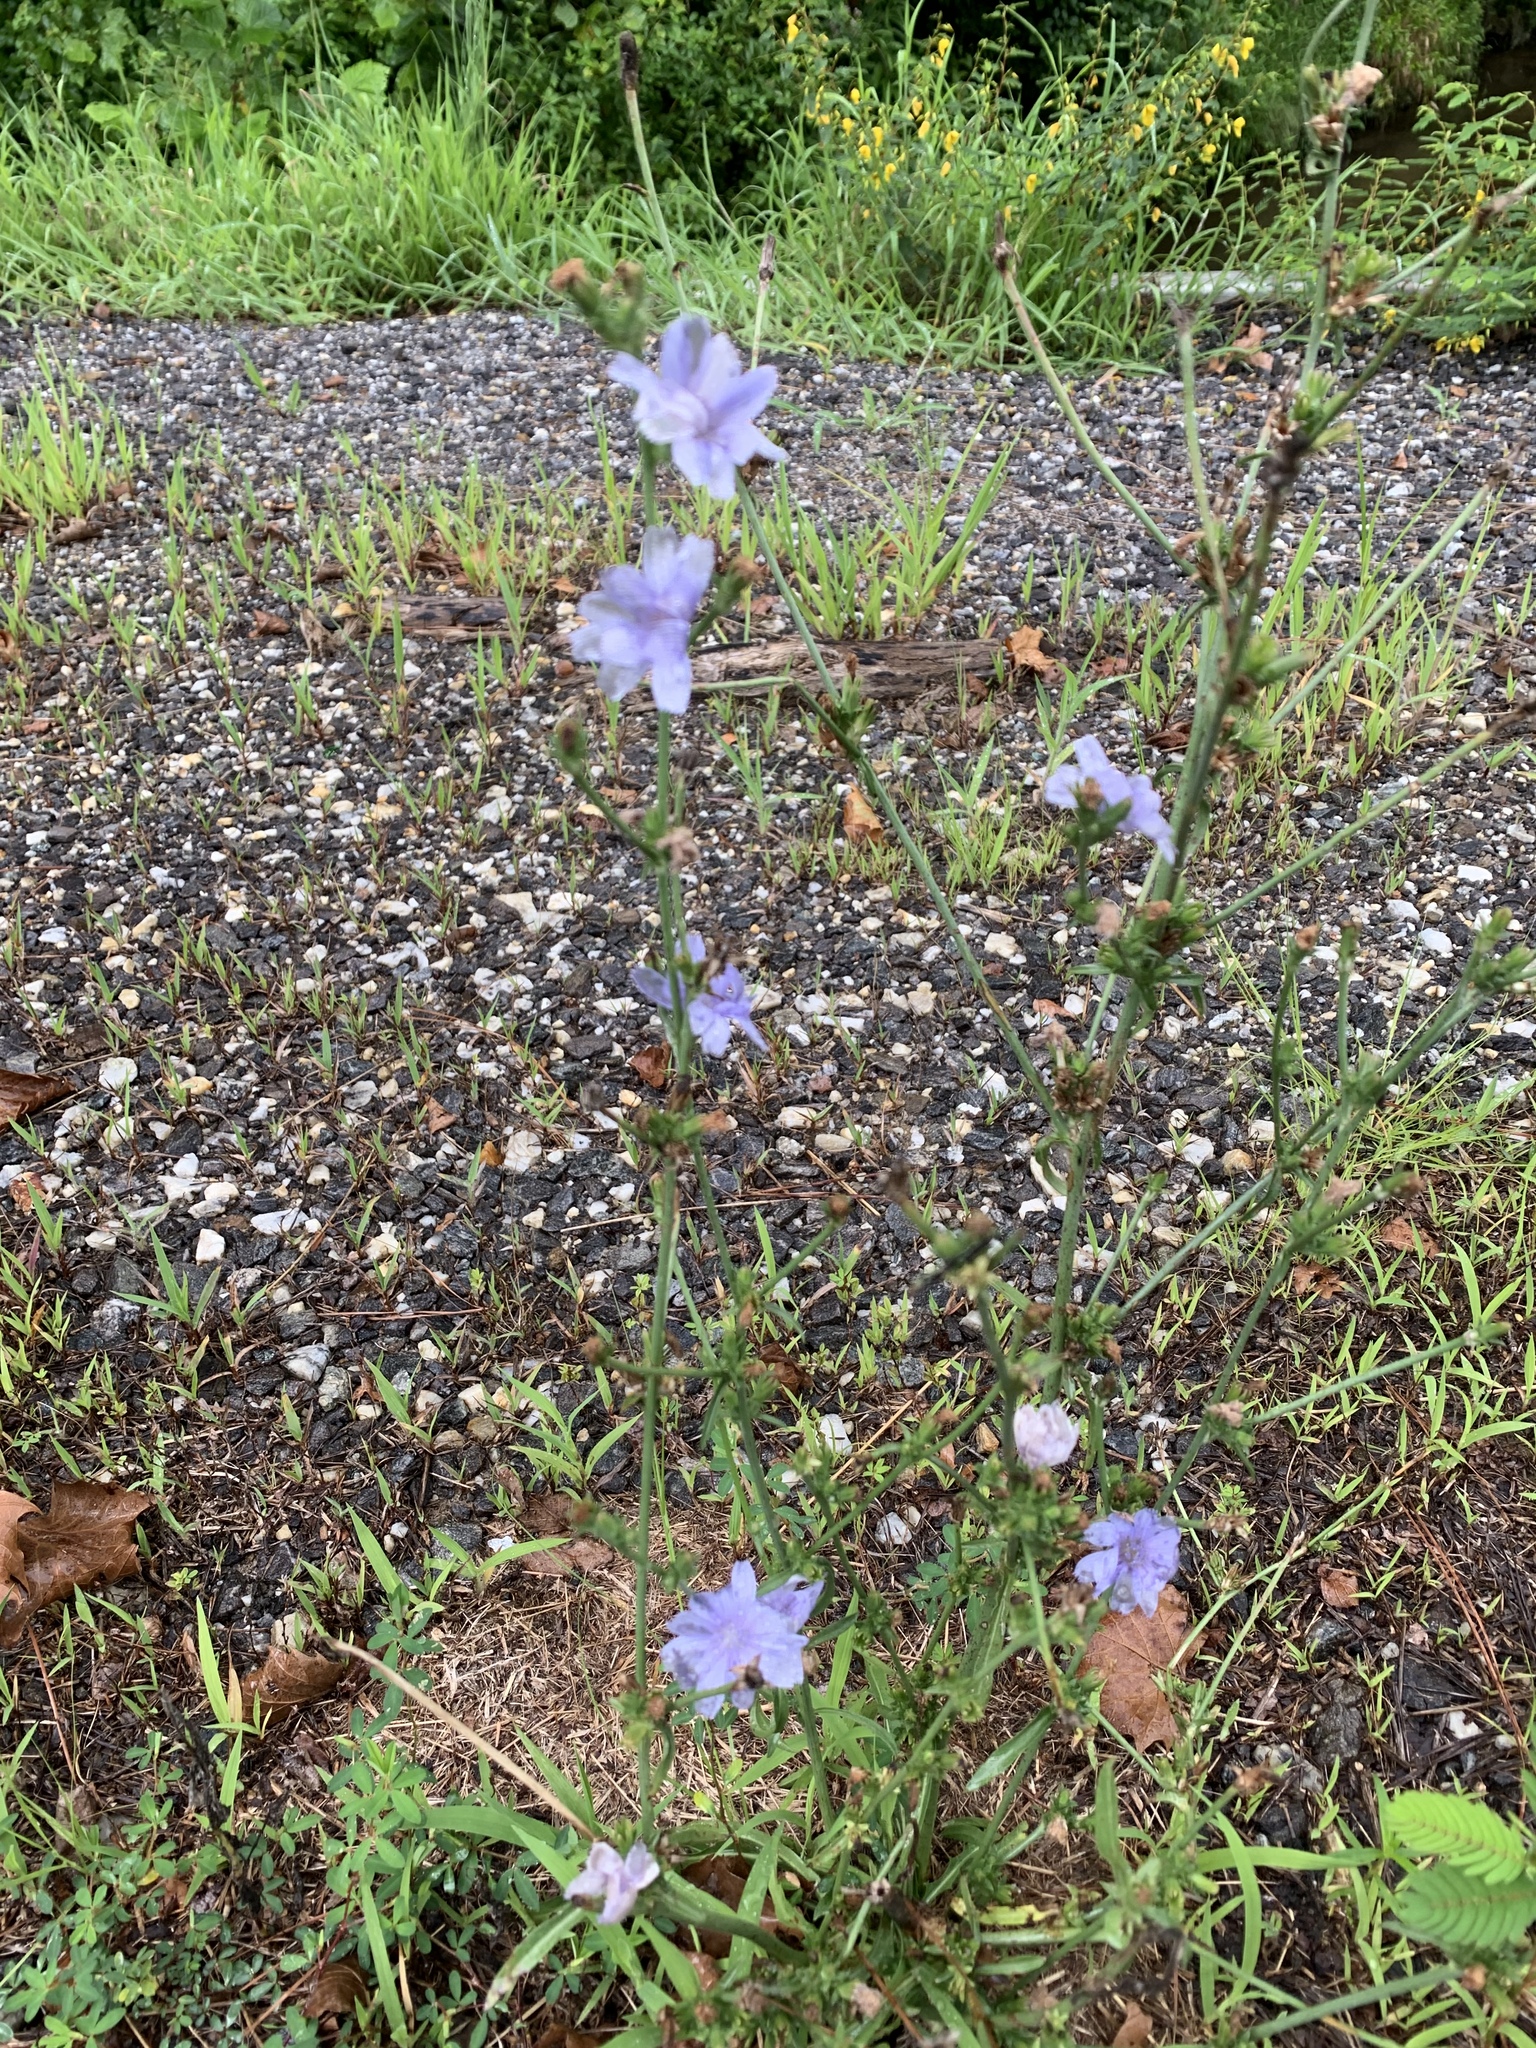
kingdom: Plantae
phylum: Tracheophyta
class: Magnoliopsida
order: Asterales
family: Asteraceae
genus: Cichorium
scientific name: Cichorium intybus
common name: Chicory
